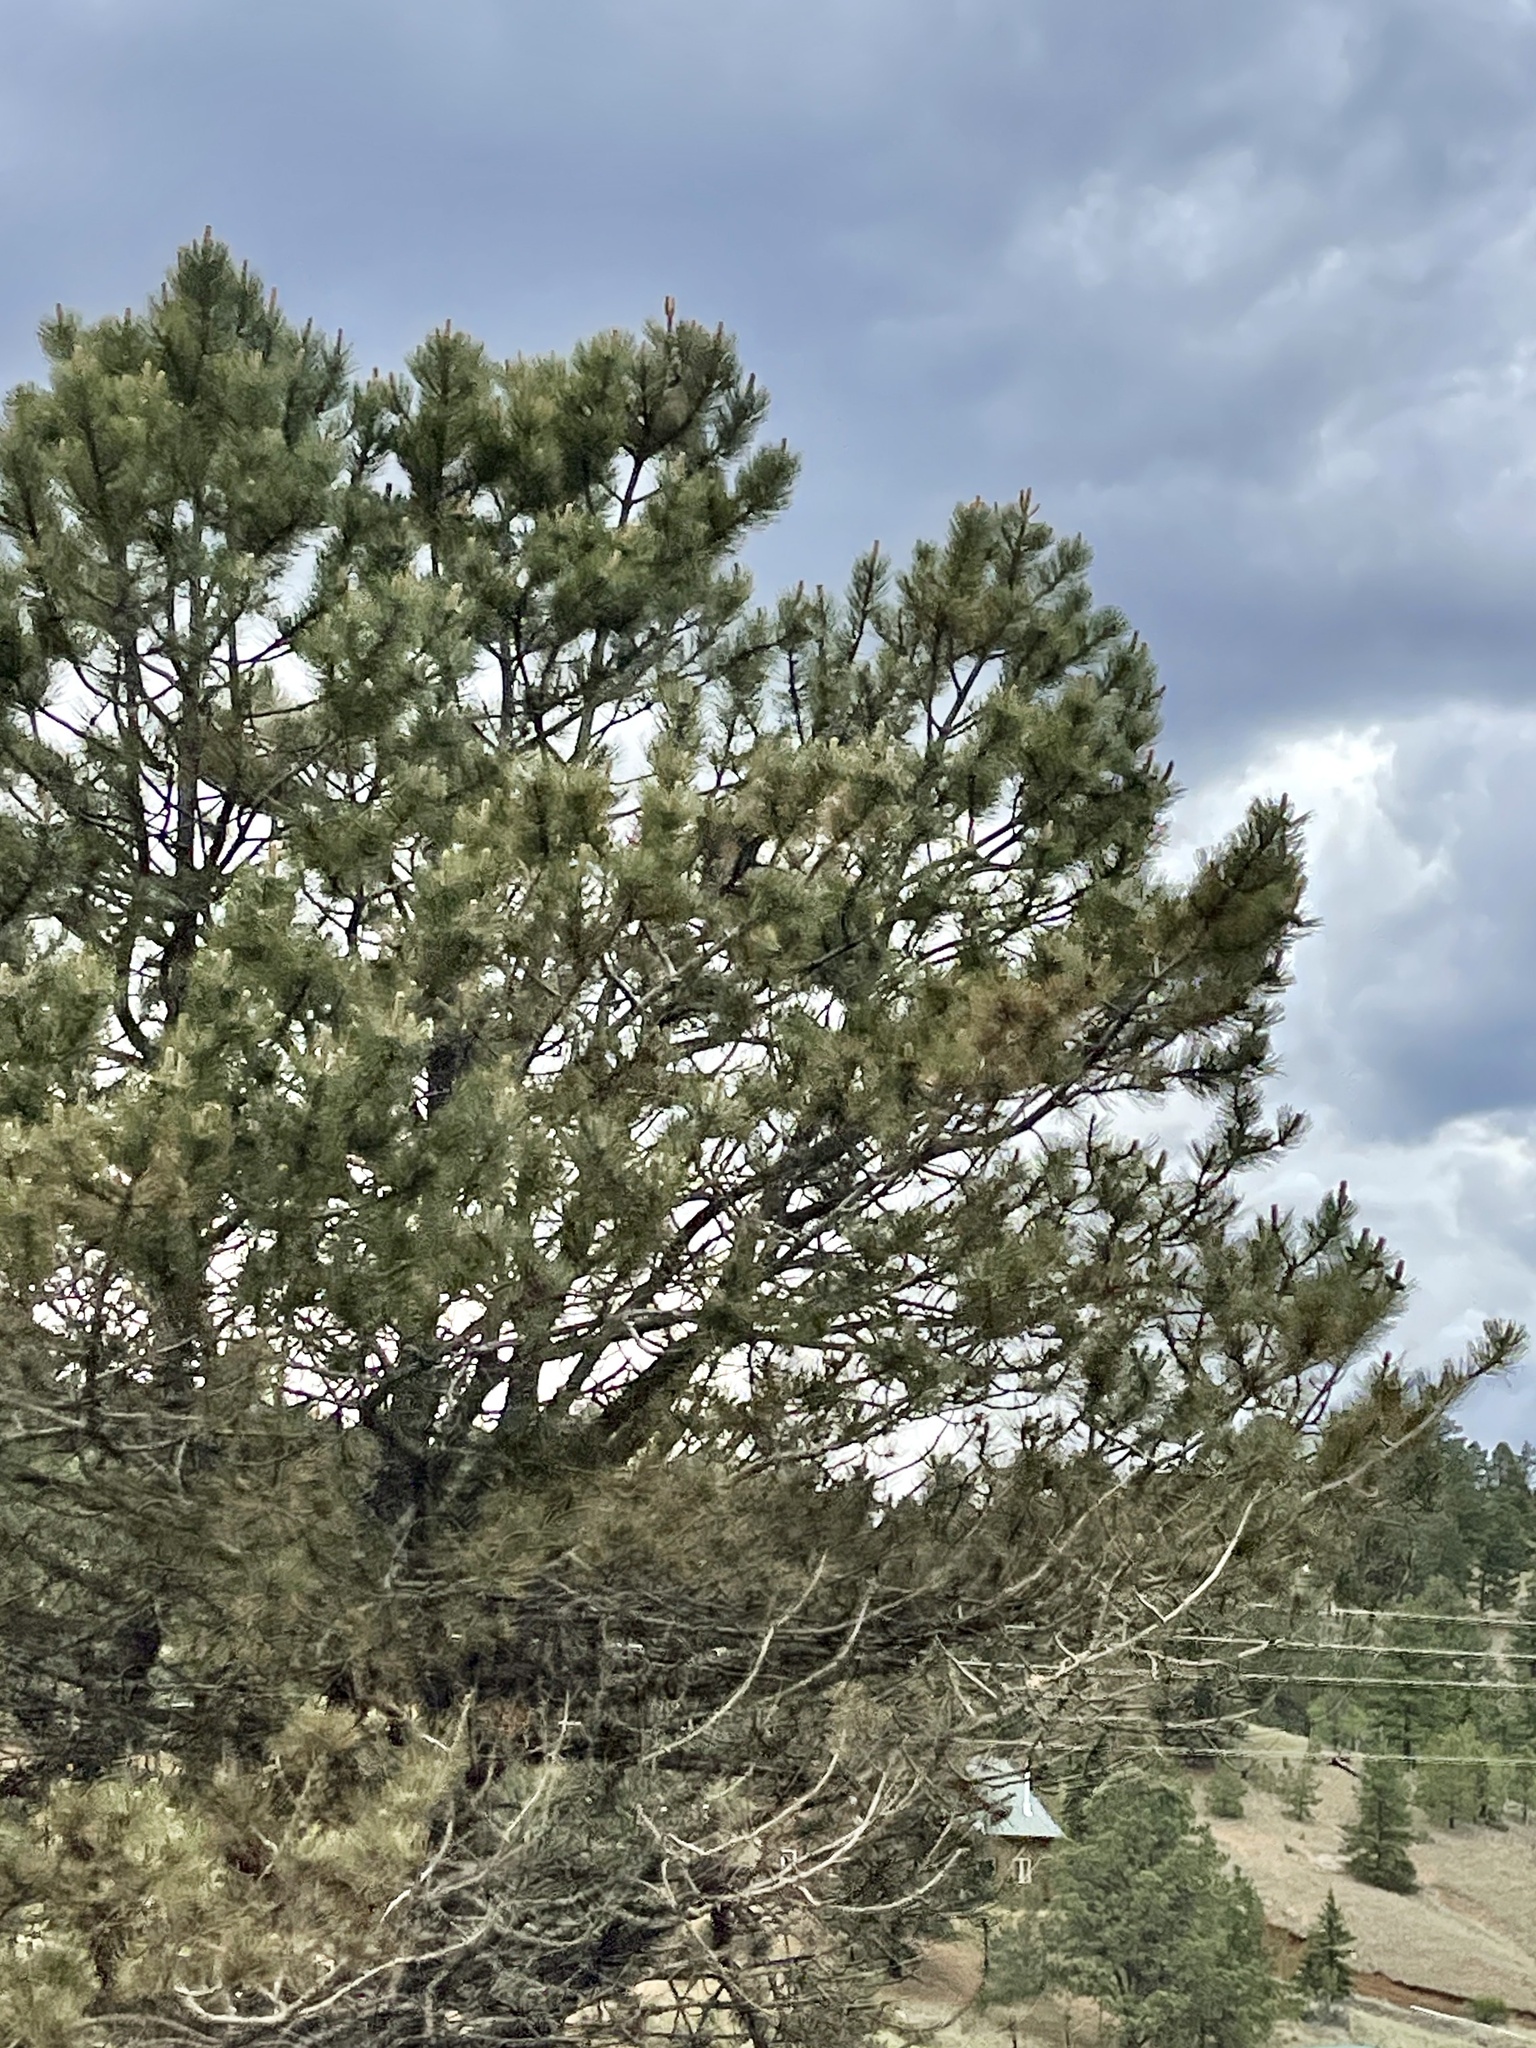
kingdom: Plantae
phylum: Tracheophyta
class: Pinopsida
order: Pinales
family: Pinaceae
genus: Pinus
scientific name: Pinus ponderosa
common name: Western yellow-pine
